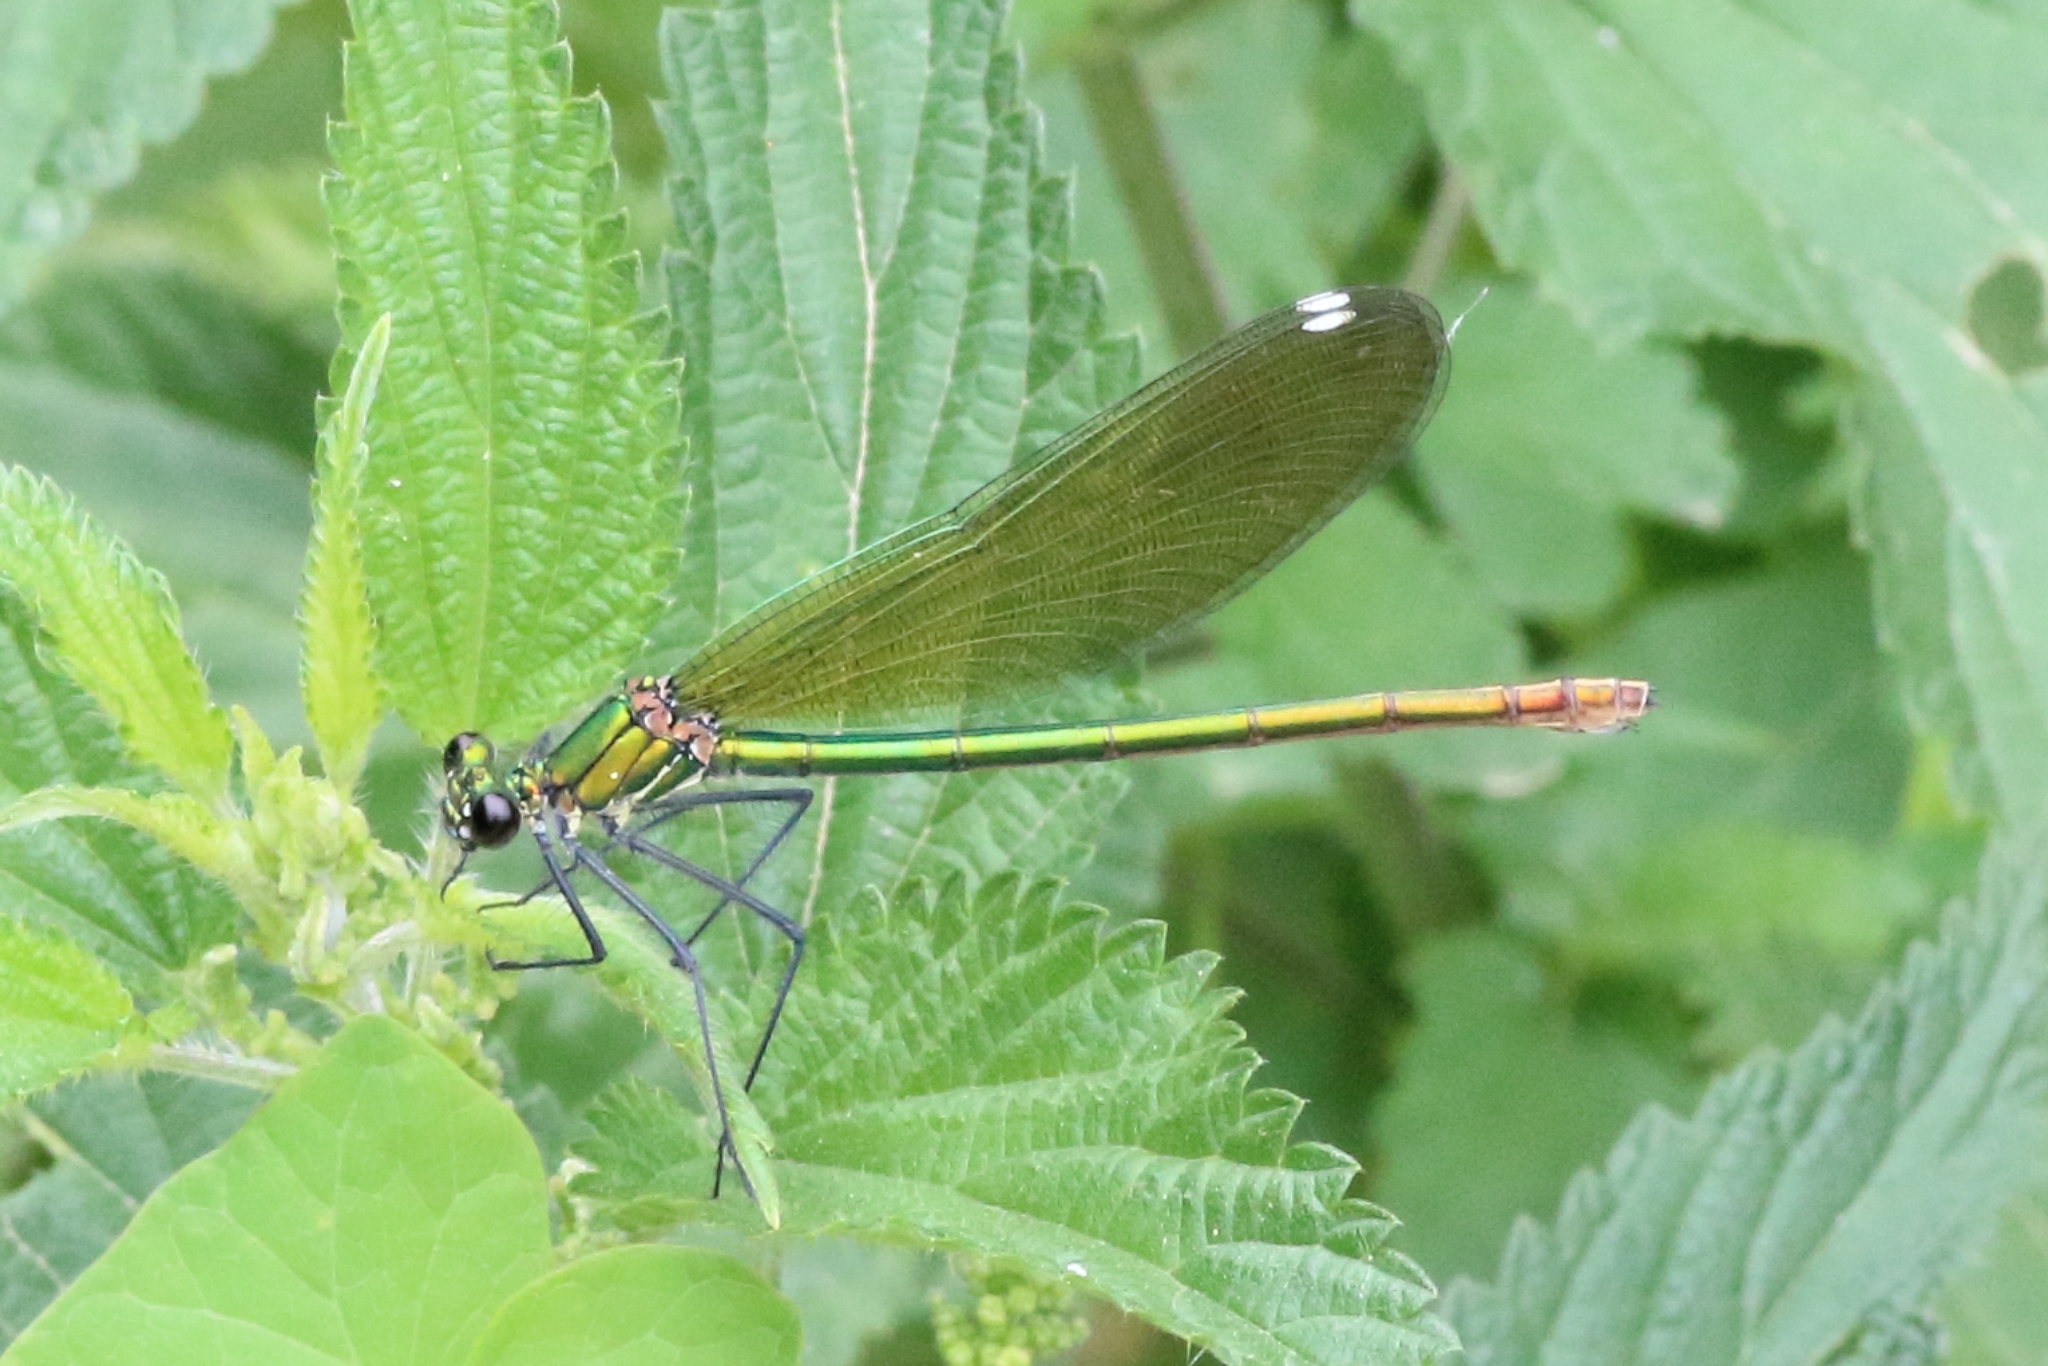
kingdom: Animalia
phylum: Arthropoda
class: Insecta
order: Odonata
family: Calopterygidae
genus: Calopteryx
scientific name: Calopteryx splendens
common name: Banded demoiselle
